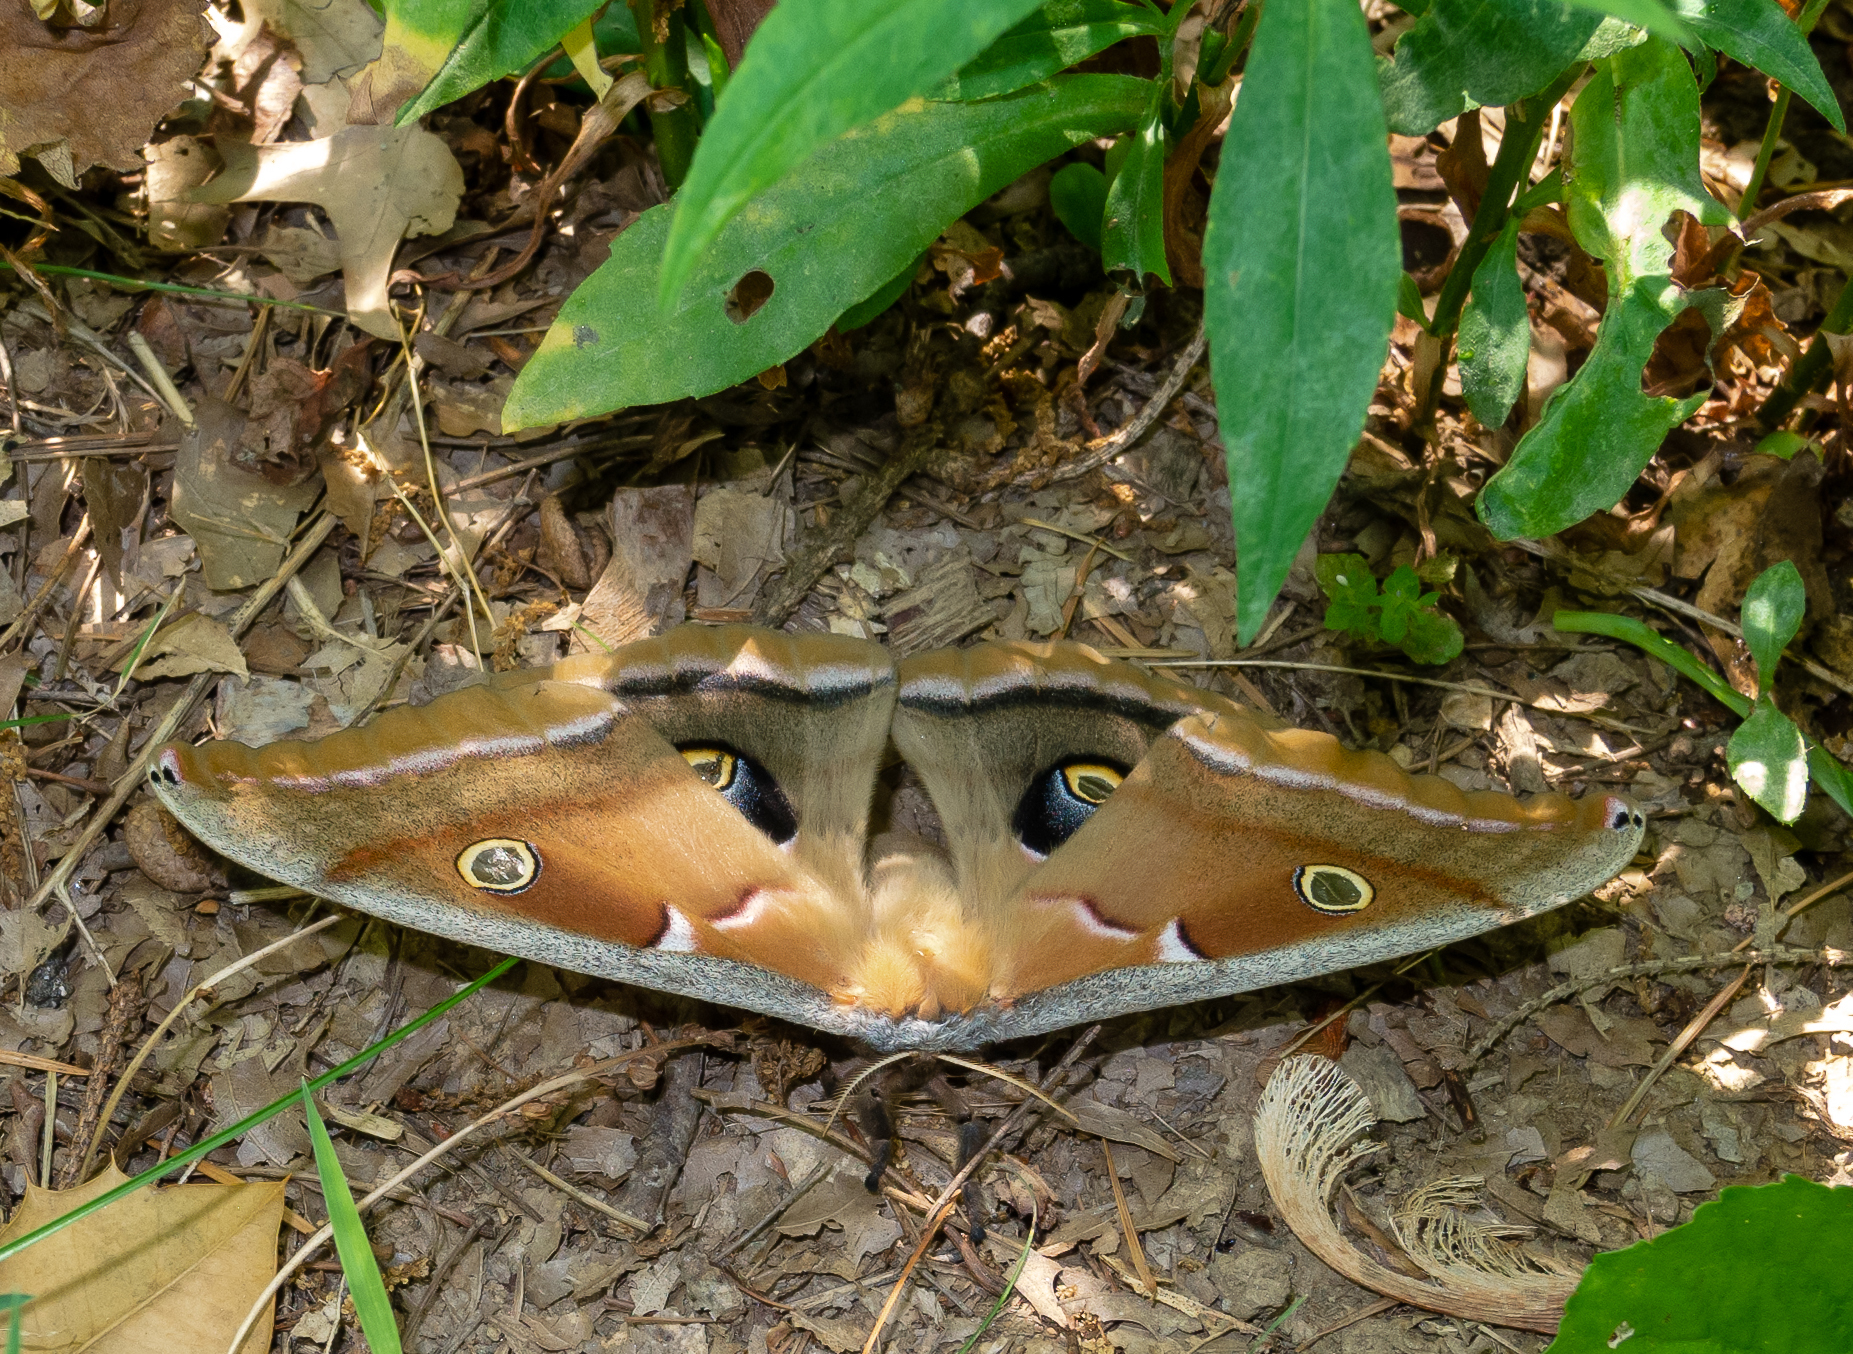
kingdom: Animalia
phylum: Arthropoda
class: Insecta
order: Lepidoptera
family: Saturniidae
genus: Antheraea
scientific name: Antheraea polyphemus
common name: Polyphemus moth
